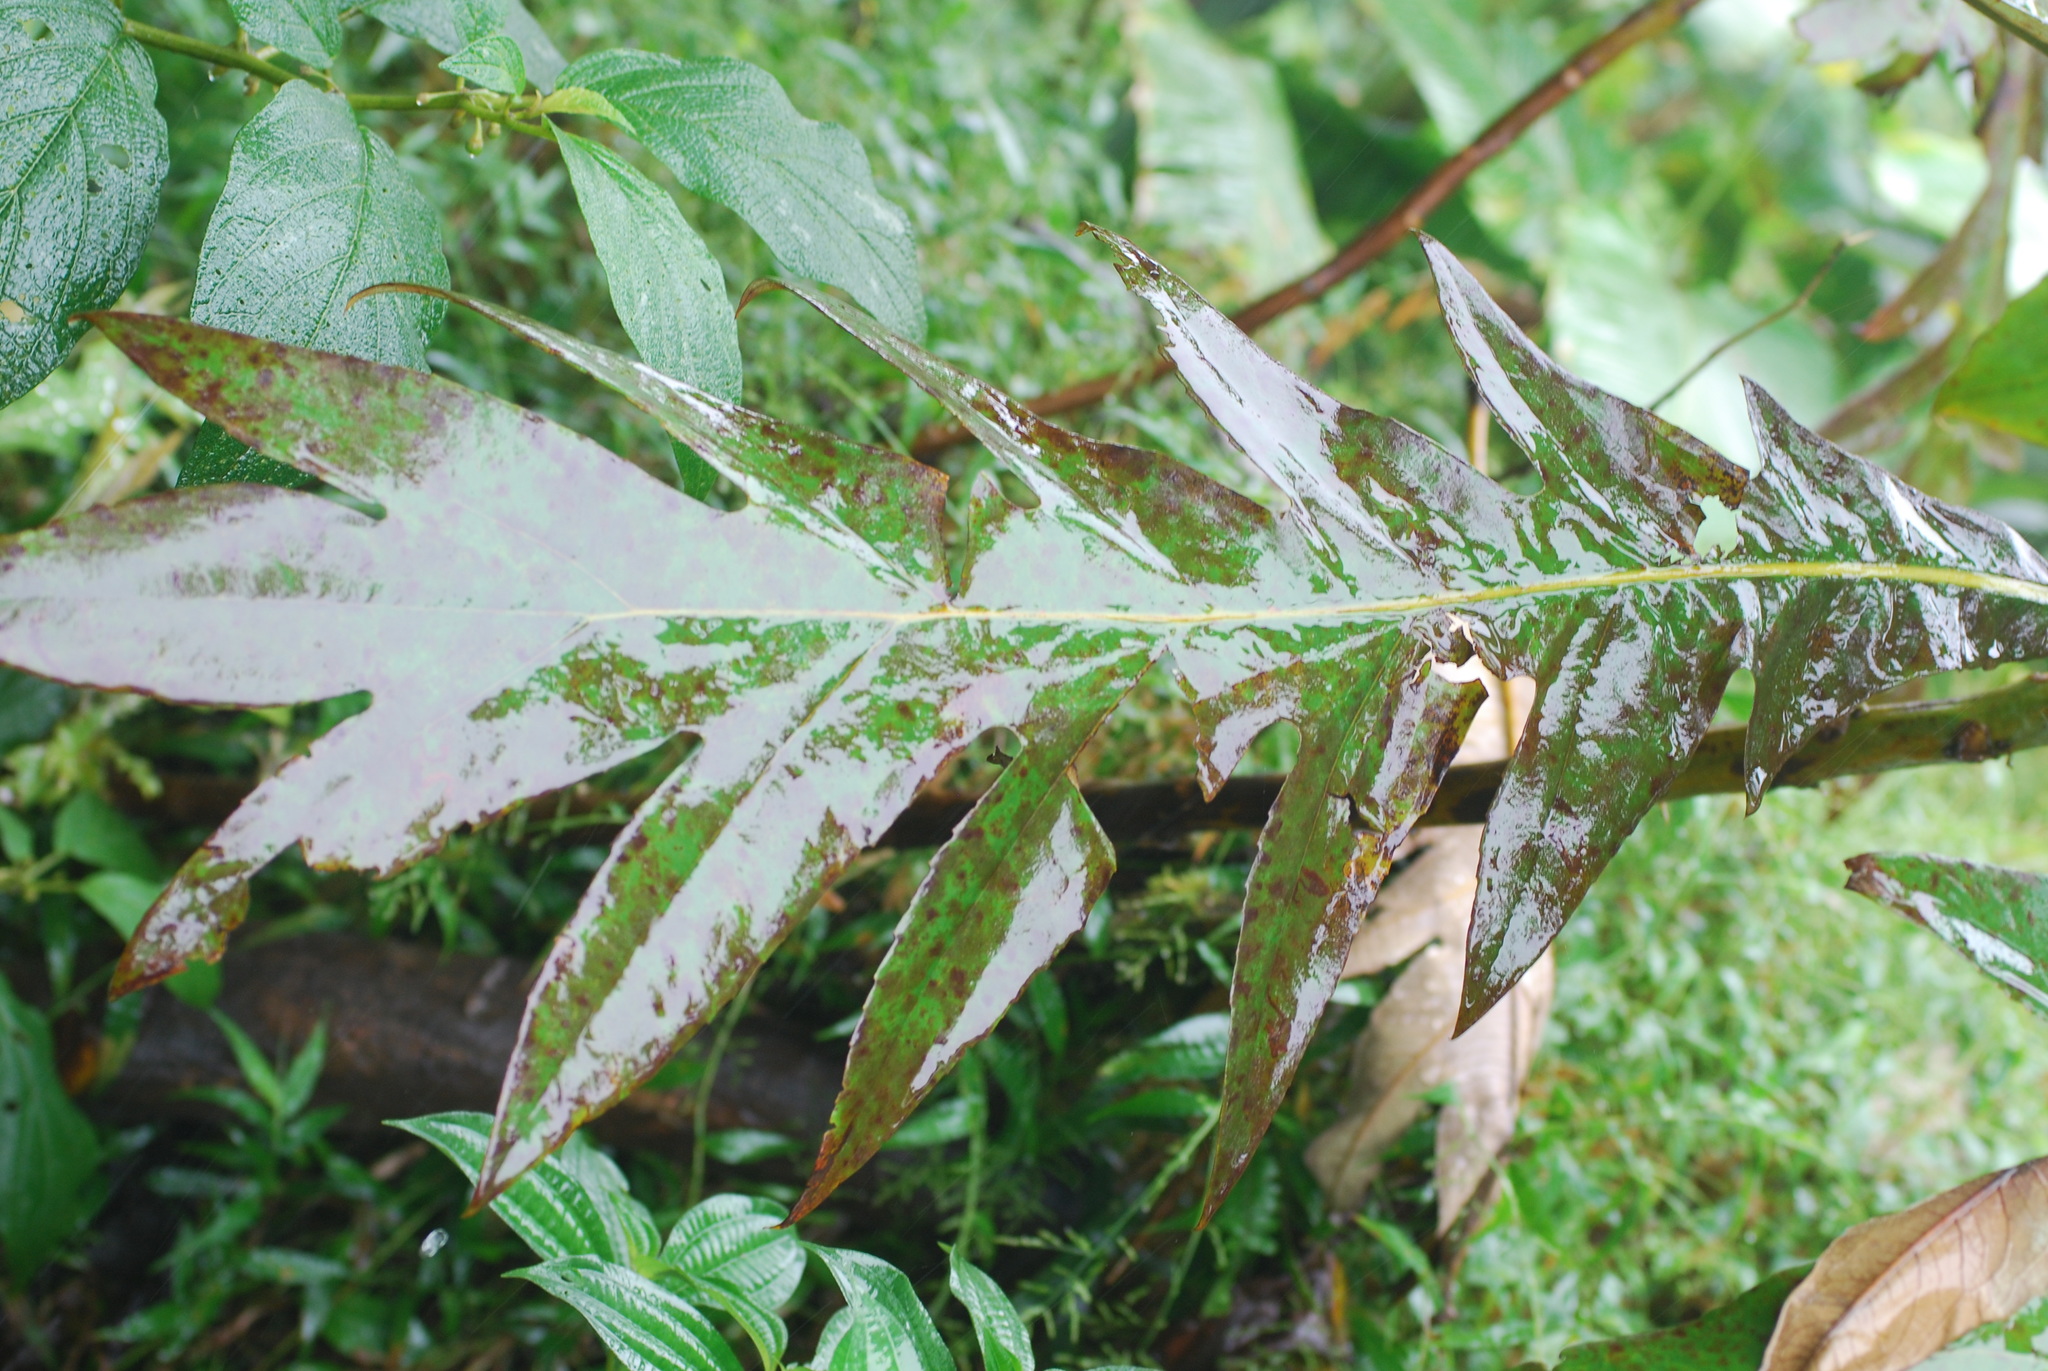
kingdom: Plantae
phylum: Tracheophyta
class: Magnoliopsida
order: Ranunculales
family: Papaveraceae
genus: Bocconia
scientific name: Bocconia frutescens
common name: Tree poppy
